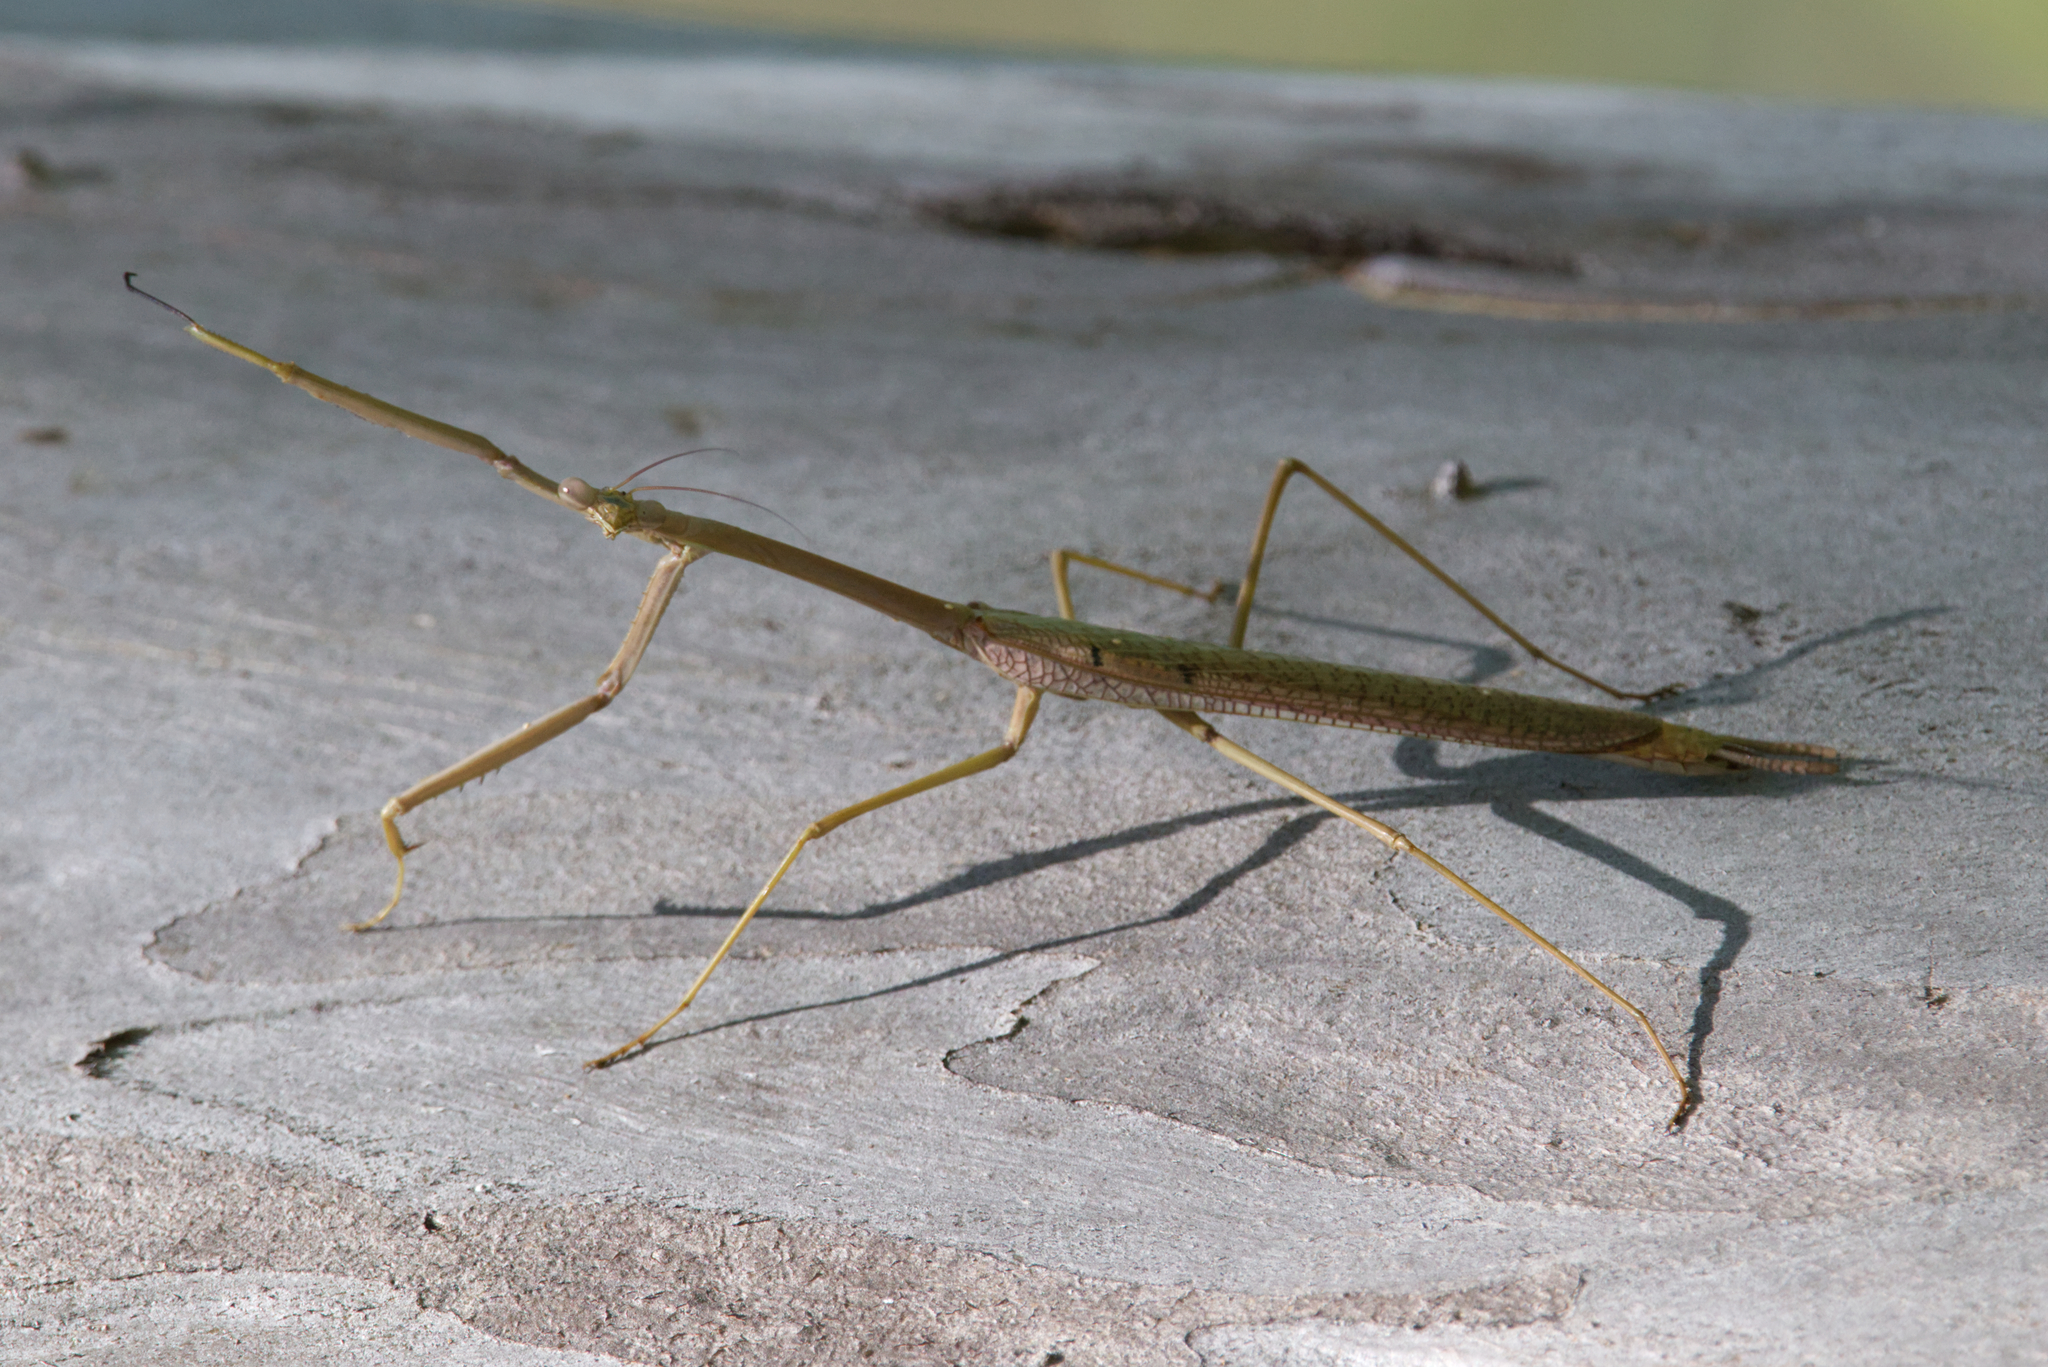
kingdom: Animalia
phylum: Arthropoda
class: Insecta
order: Mantodea
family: Mantidae
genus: Archimantis
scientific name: Archimantis latistyla
